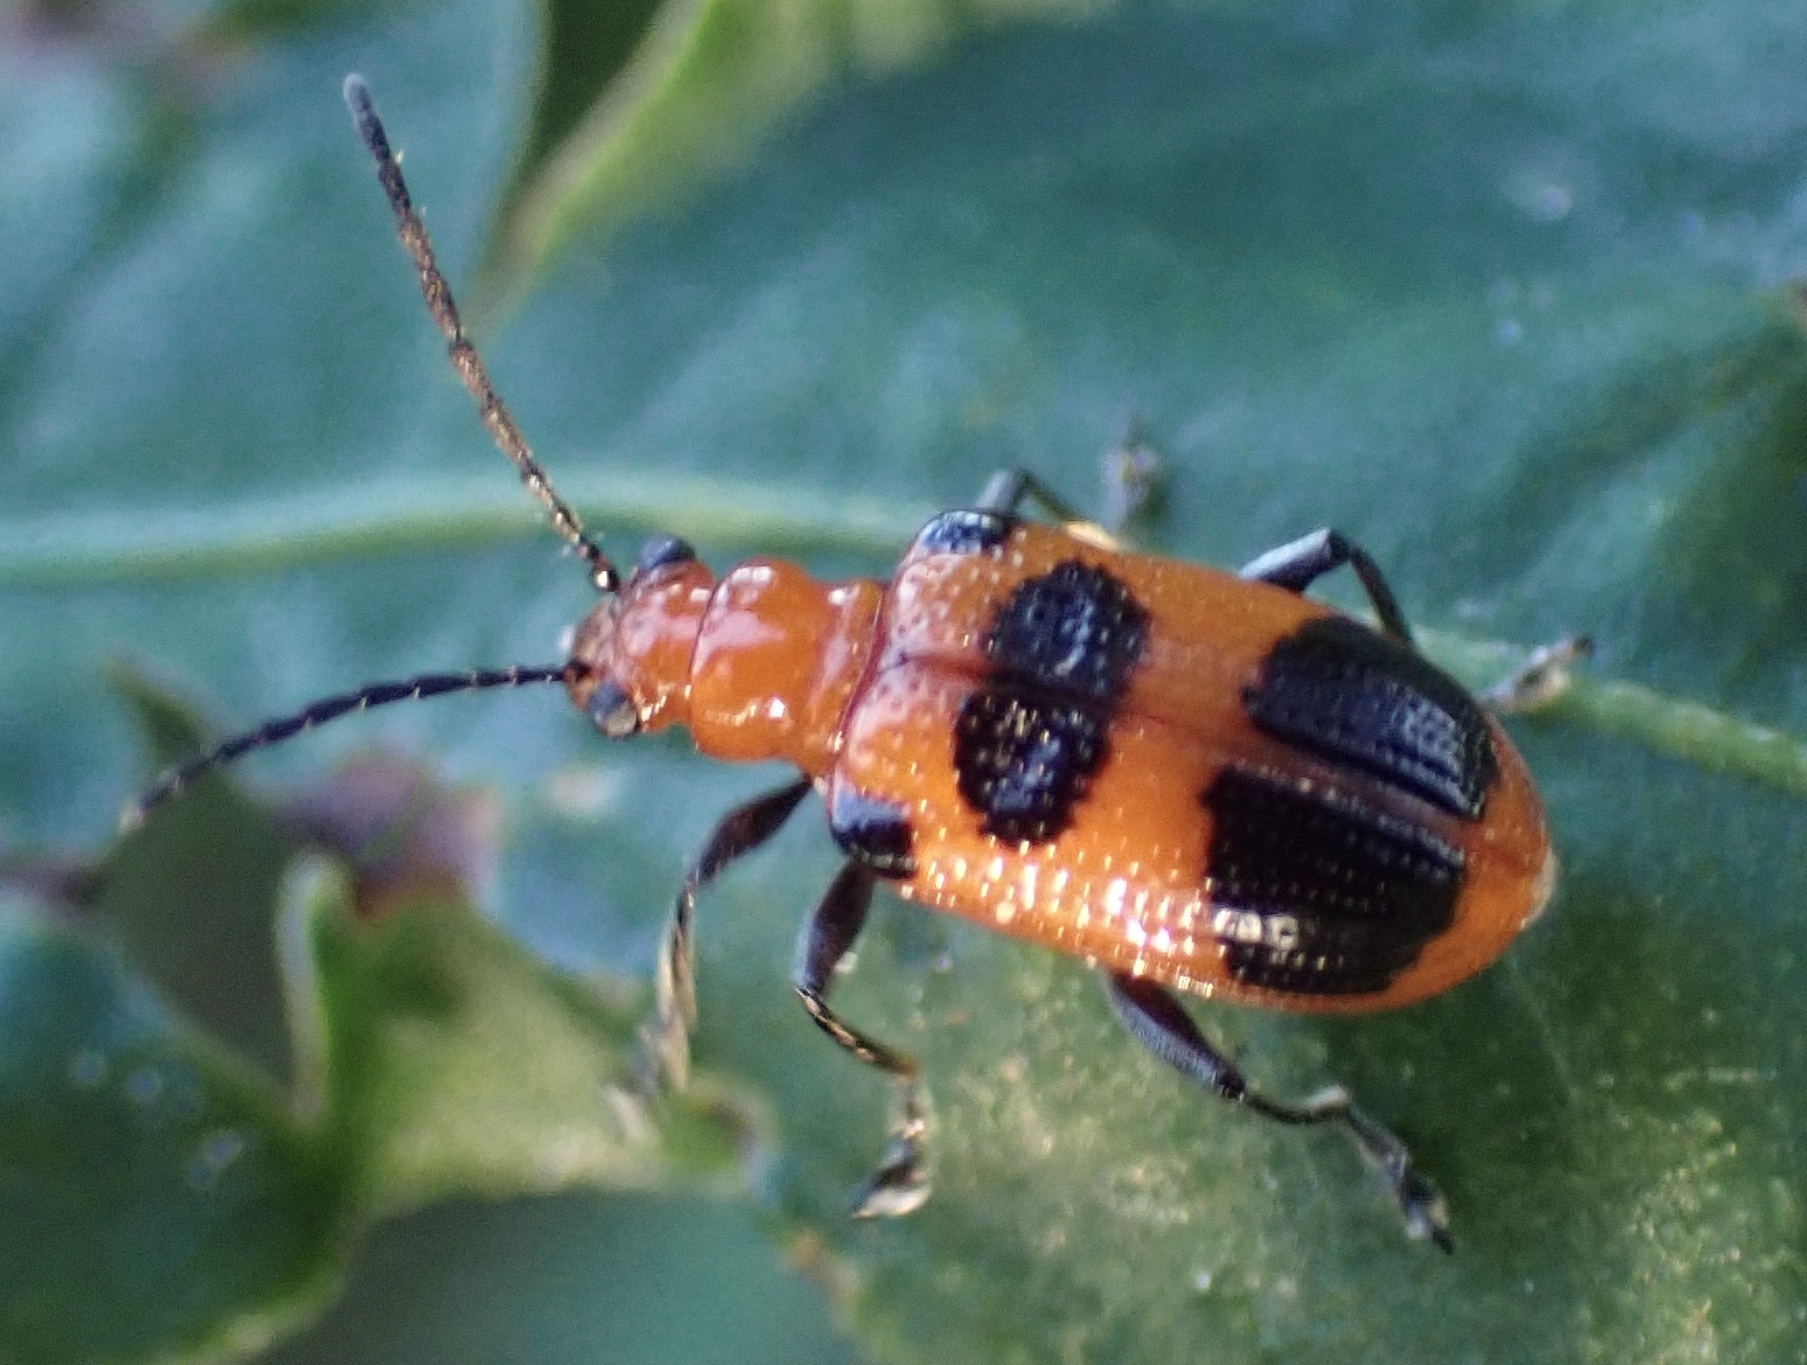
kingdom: Animalia
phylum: Arthropoda
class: Insecta
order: Coleoptera
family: Chrysomelidae
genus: Neolema
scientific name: Neolema sexpunctata
